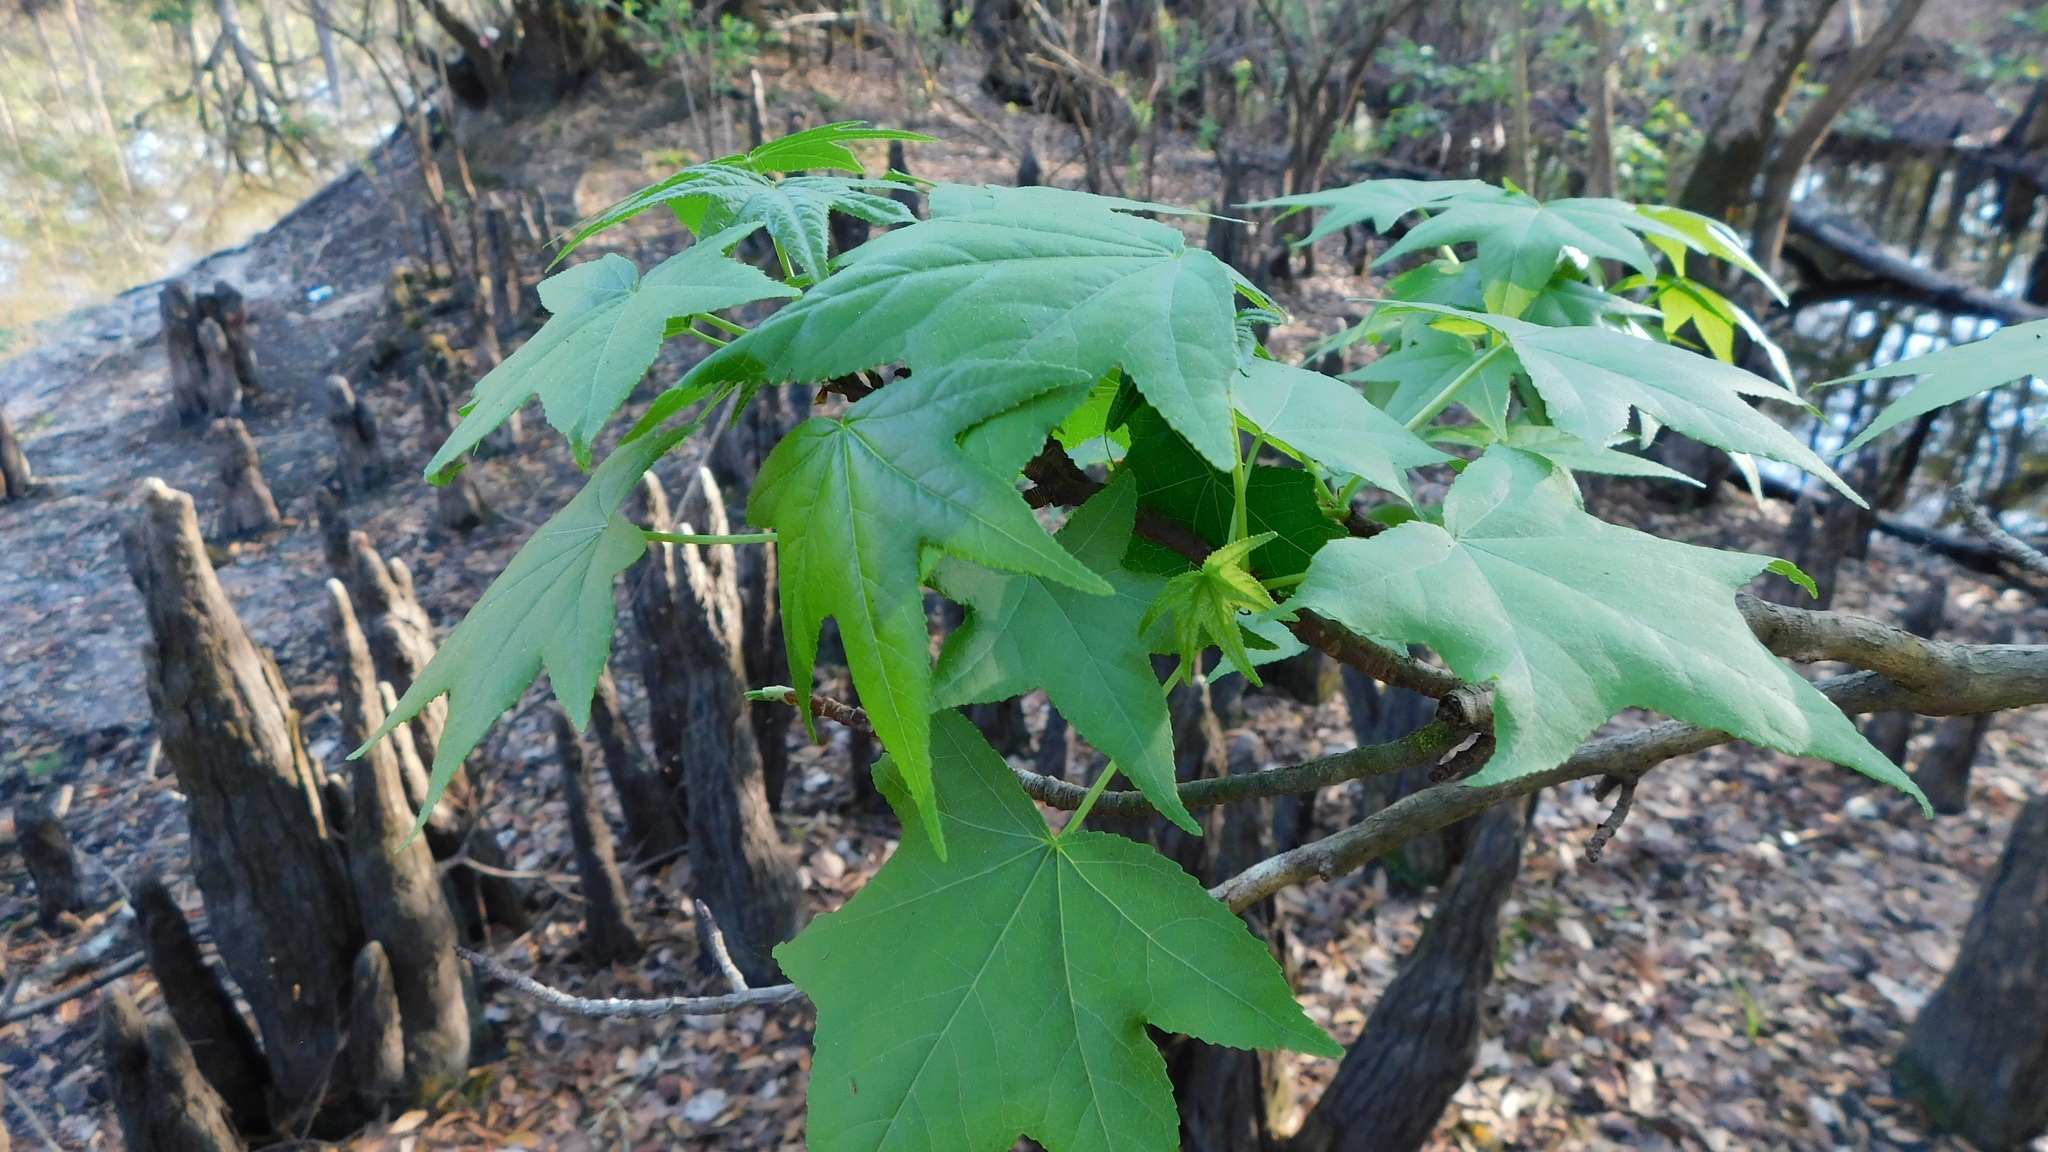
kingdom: Plantae
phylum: Tracheophyta
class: Magnoliopsida
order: Saxifragales
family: Altingiaceae
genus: Liquidambar
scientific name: Liquidambar styraciflua
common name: Sweet gum
